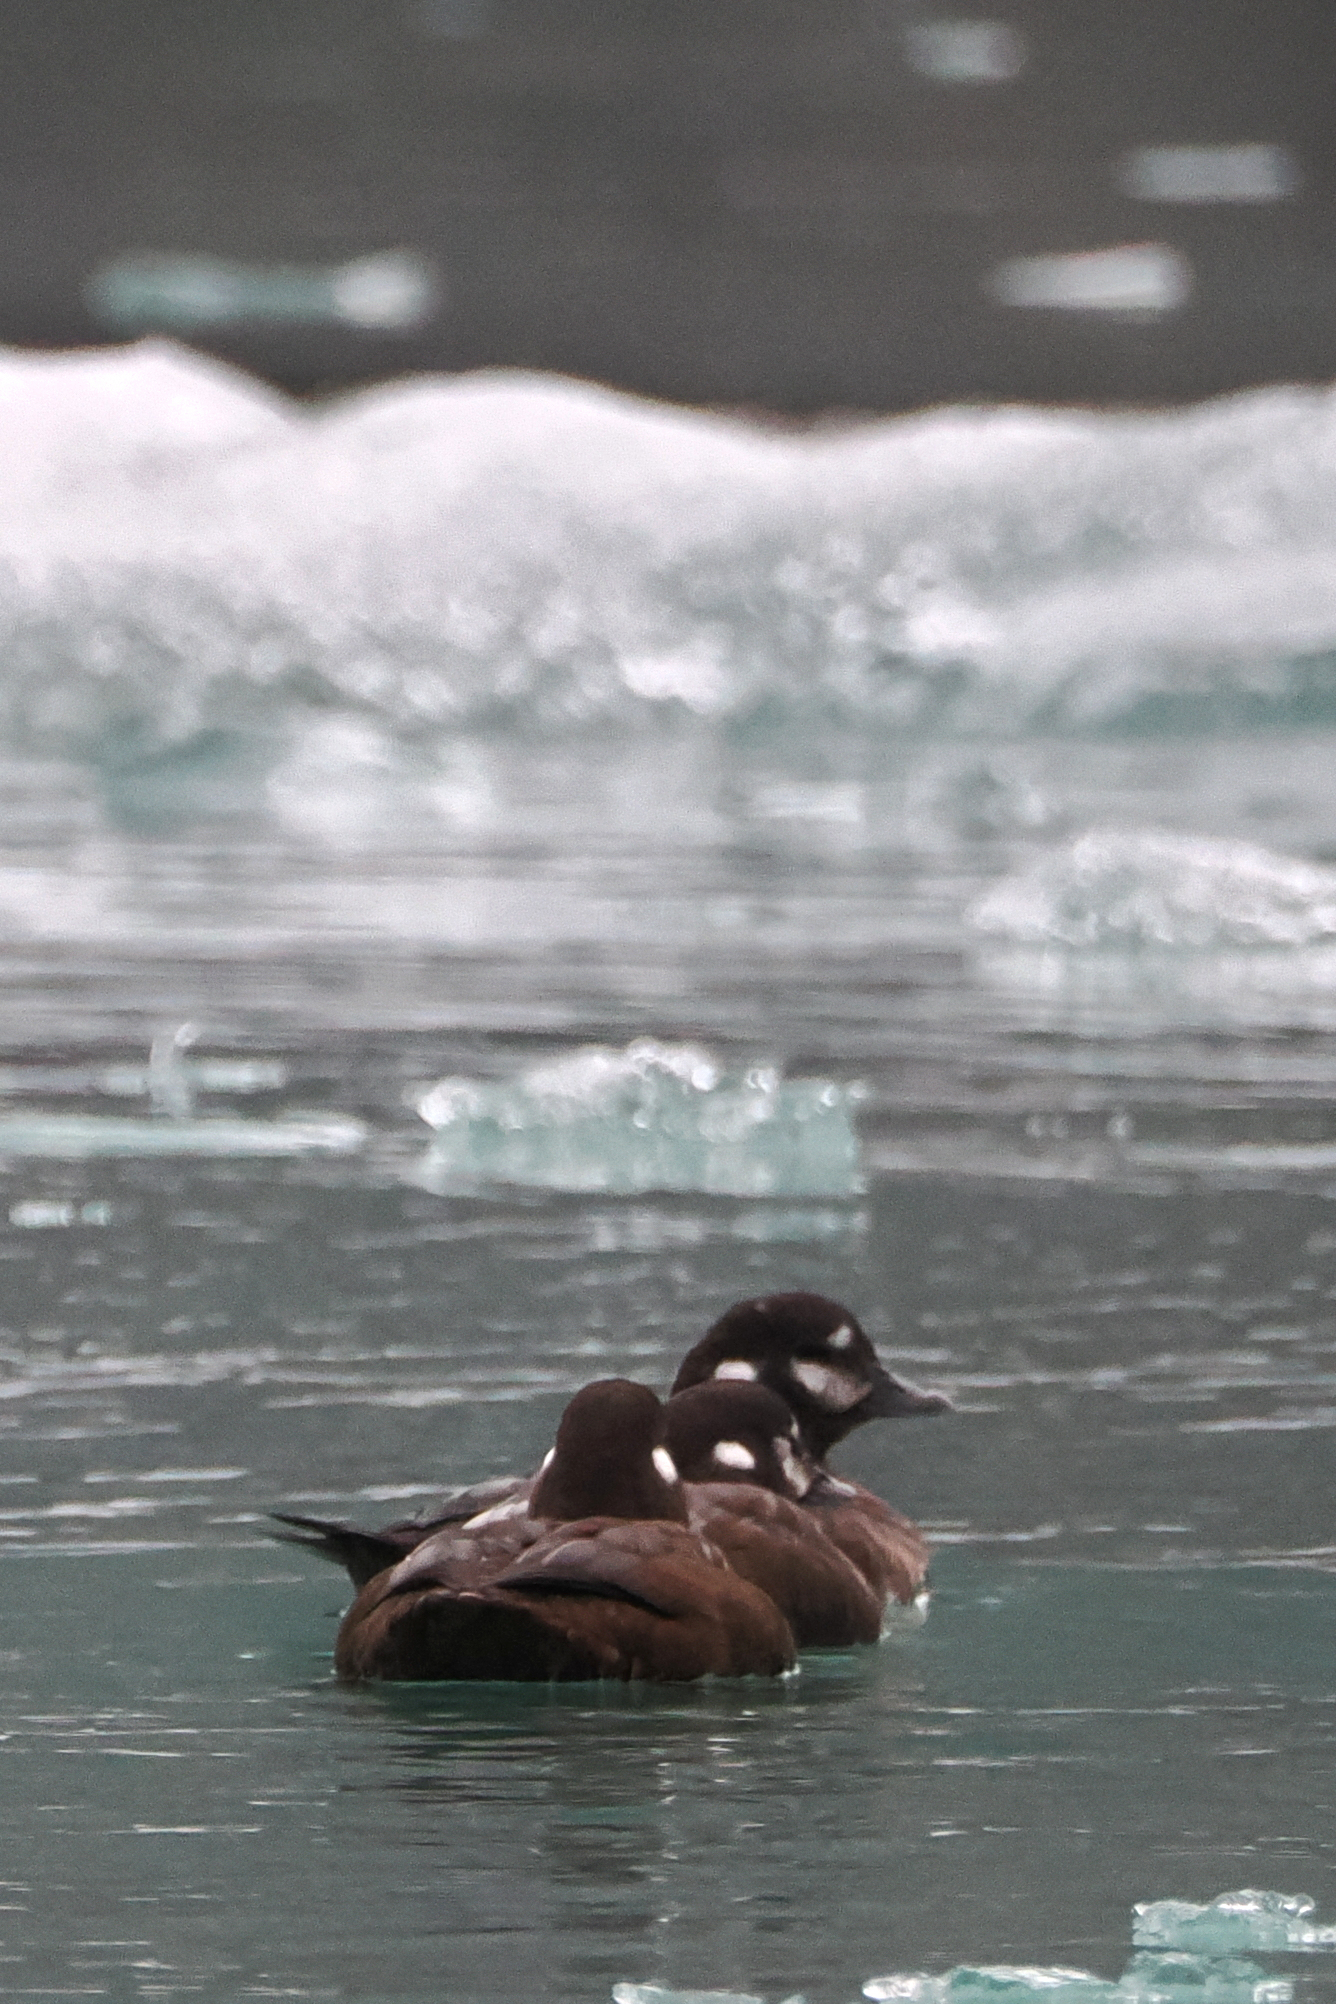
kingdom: Animalia
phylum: Chordata
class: Aves
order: Anseriformes
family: Anatidae
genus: Histrionicus
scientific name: Histrionicus histrionicus
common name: Harlequin duck
